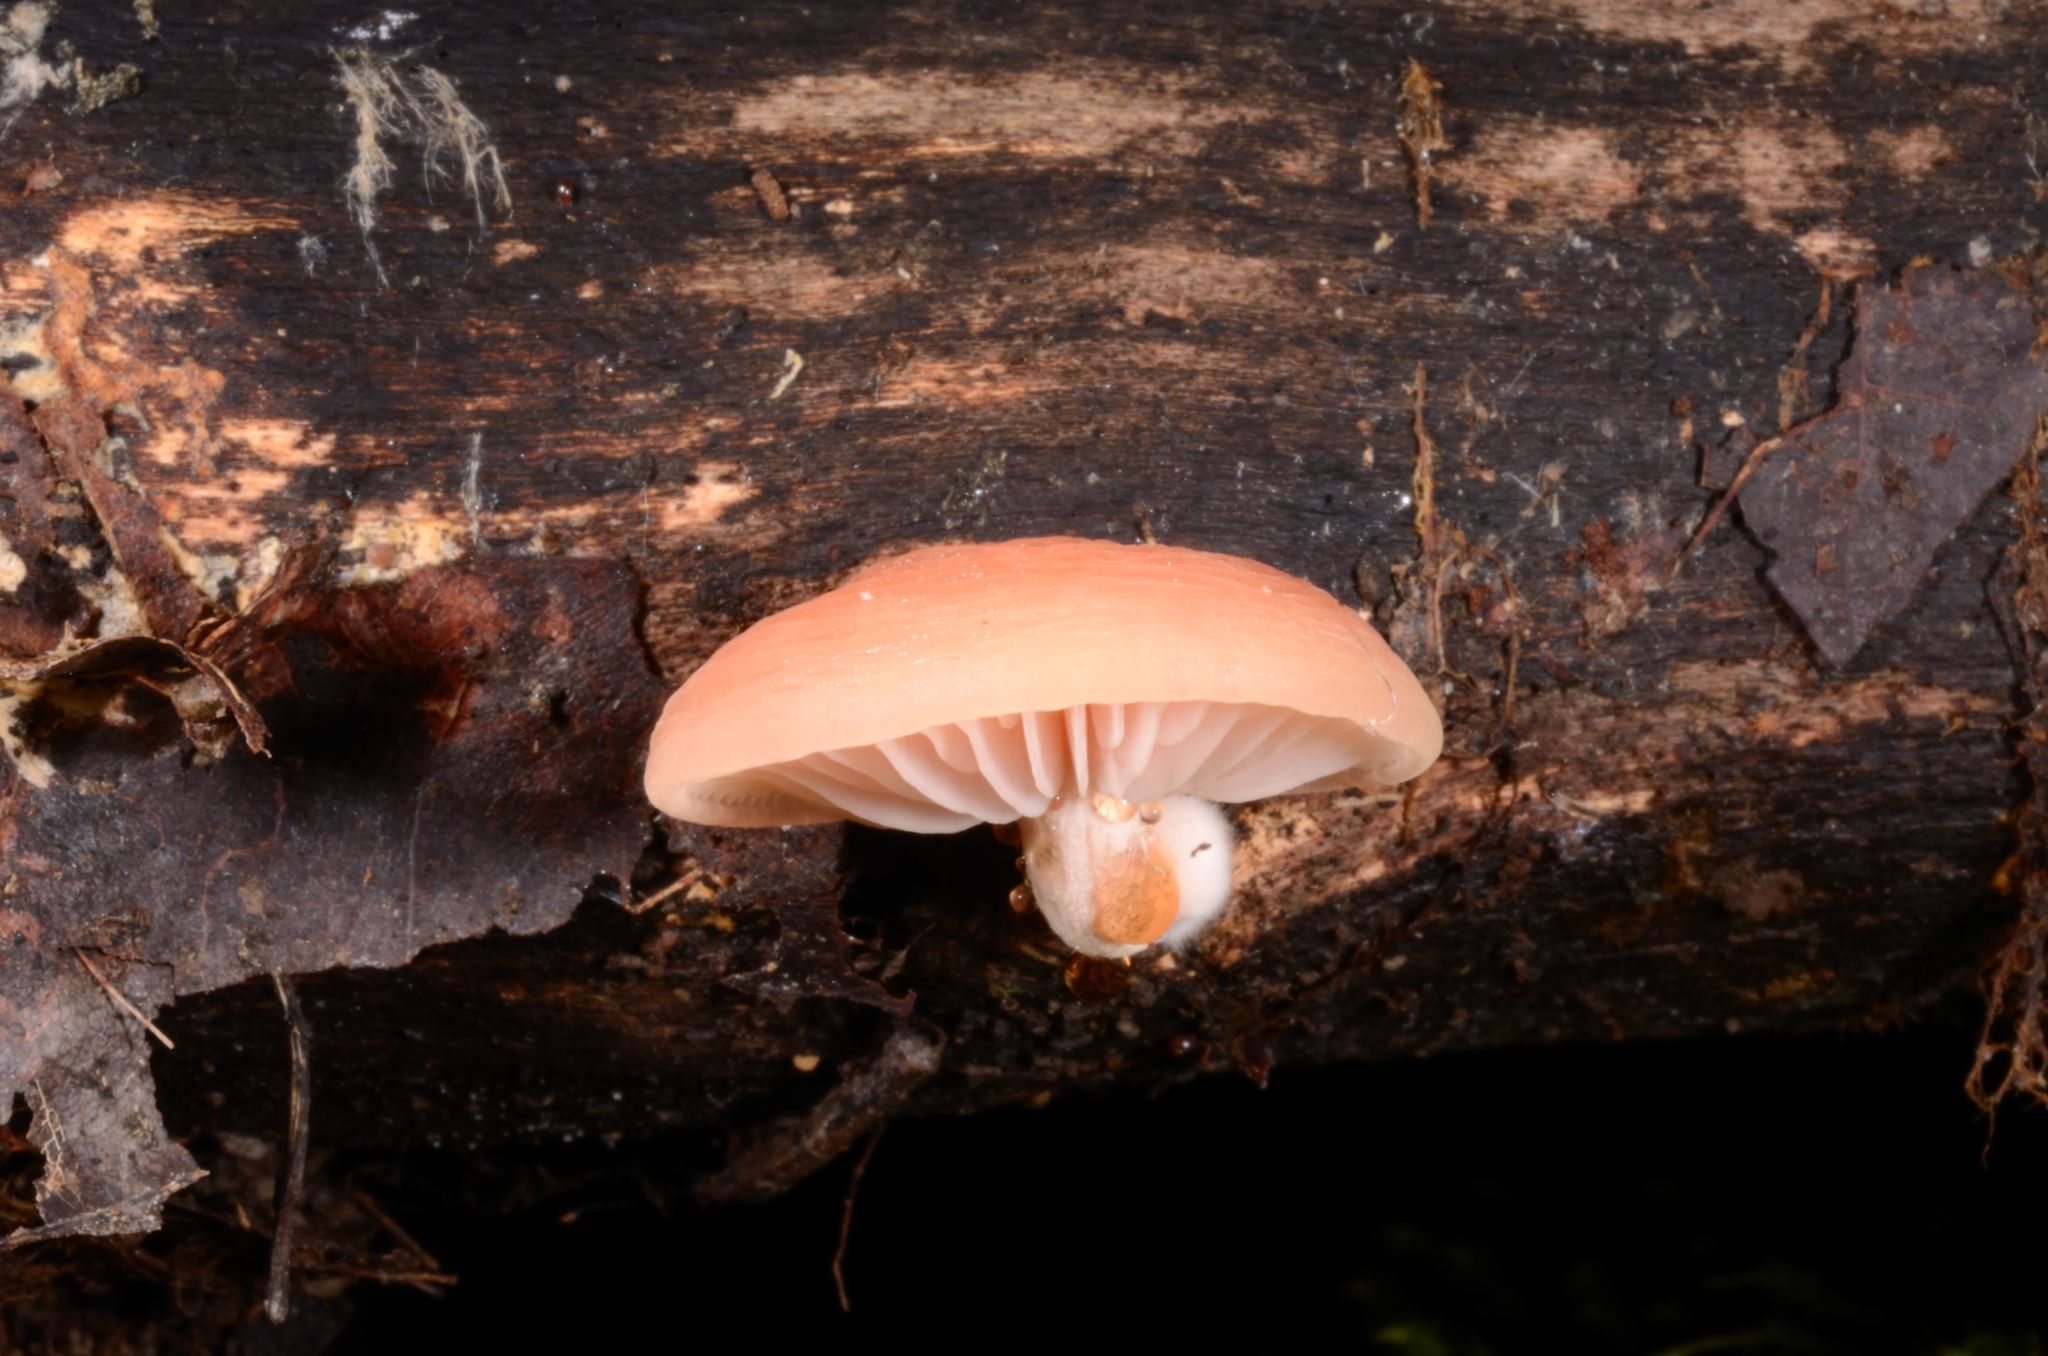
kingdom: Fungi
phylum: Basidiomycota
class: Agaricomycetes
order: Agaricales
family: Physalacriaceae
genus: Rhodotus
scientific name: Rhodotus palmatus
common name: Wrinkled peach
